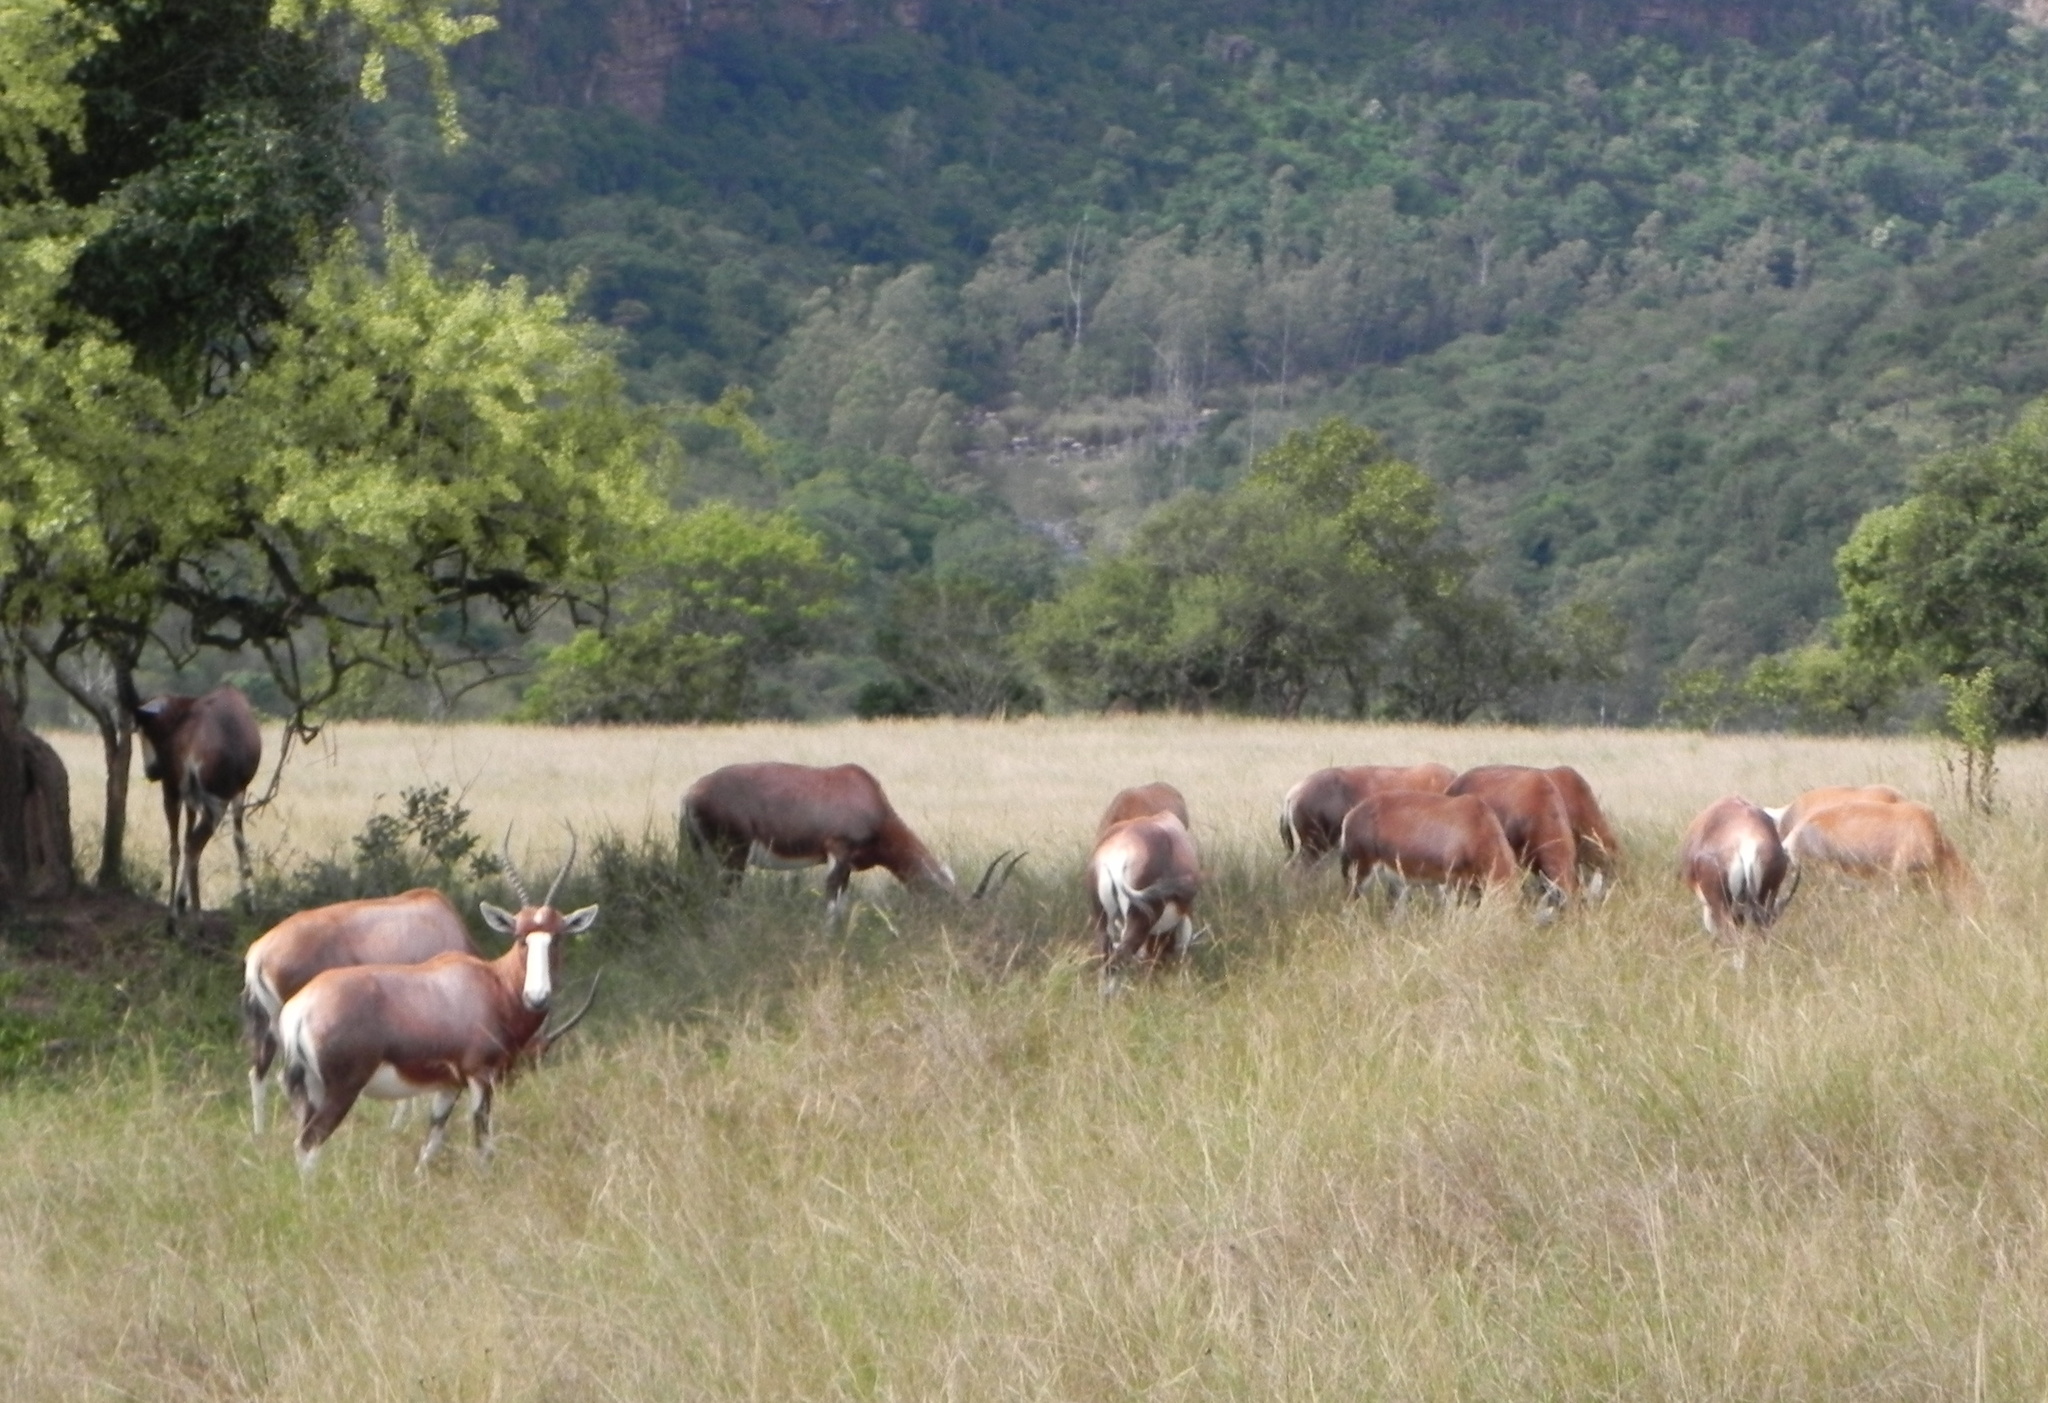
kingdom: Animalia
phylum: Chordata
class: Mammalia
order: Artiodactyla
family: Bovidae
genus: Damaliscus
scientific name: Damaliscus pygargus
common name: Bontebok
